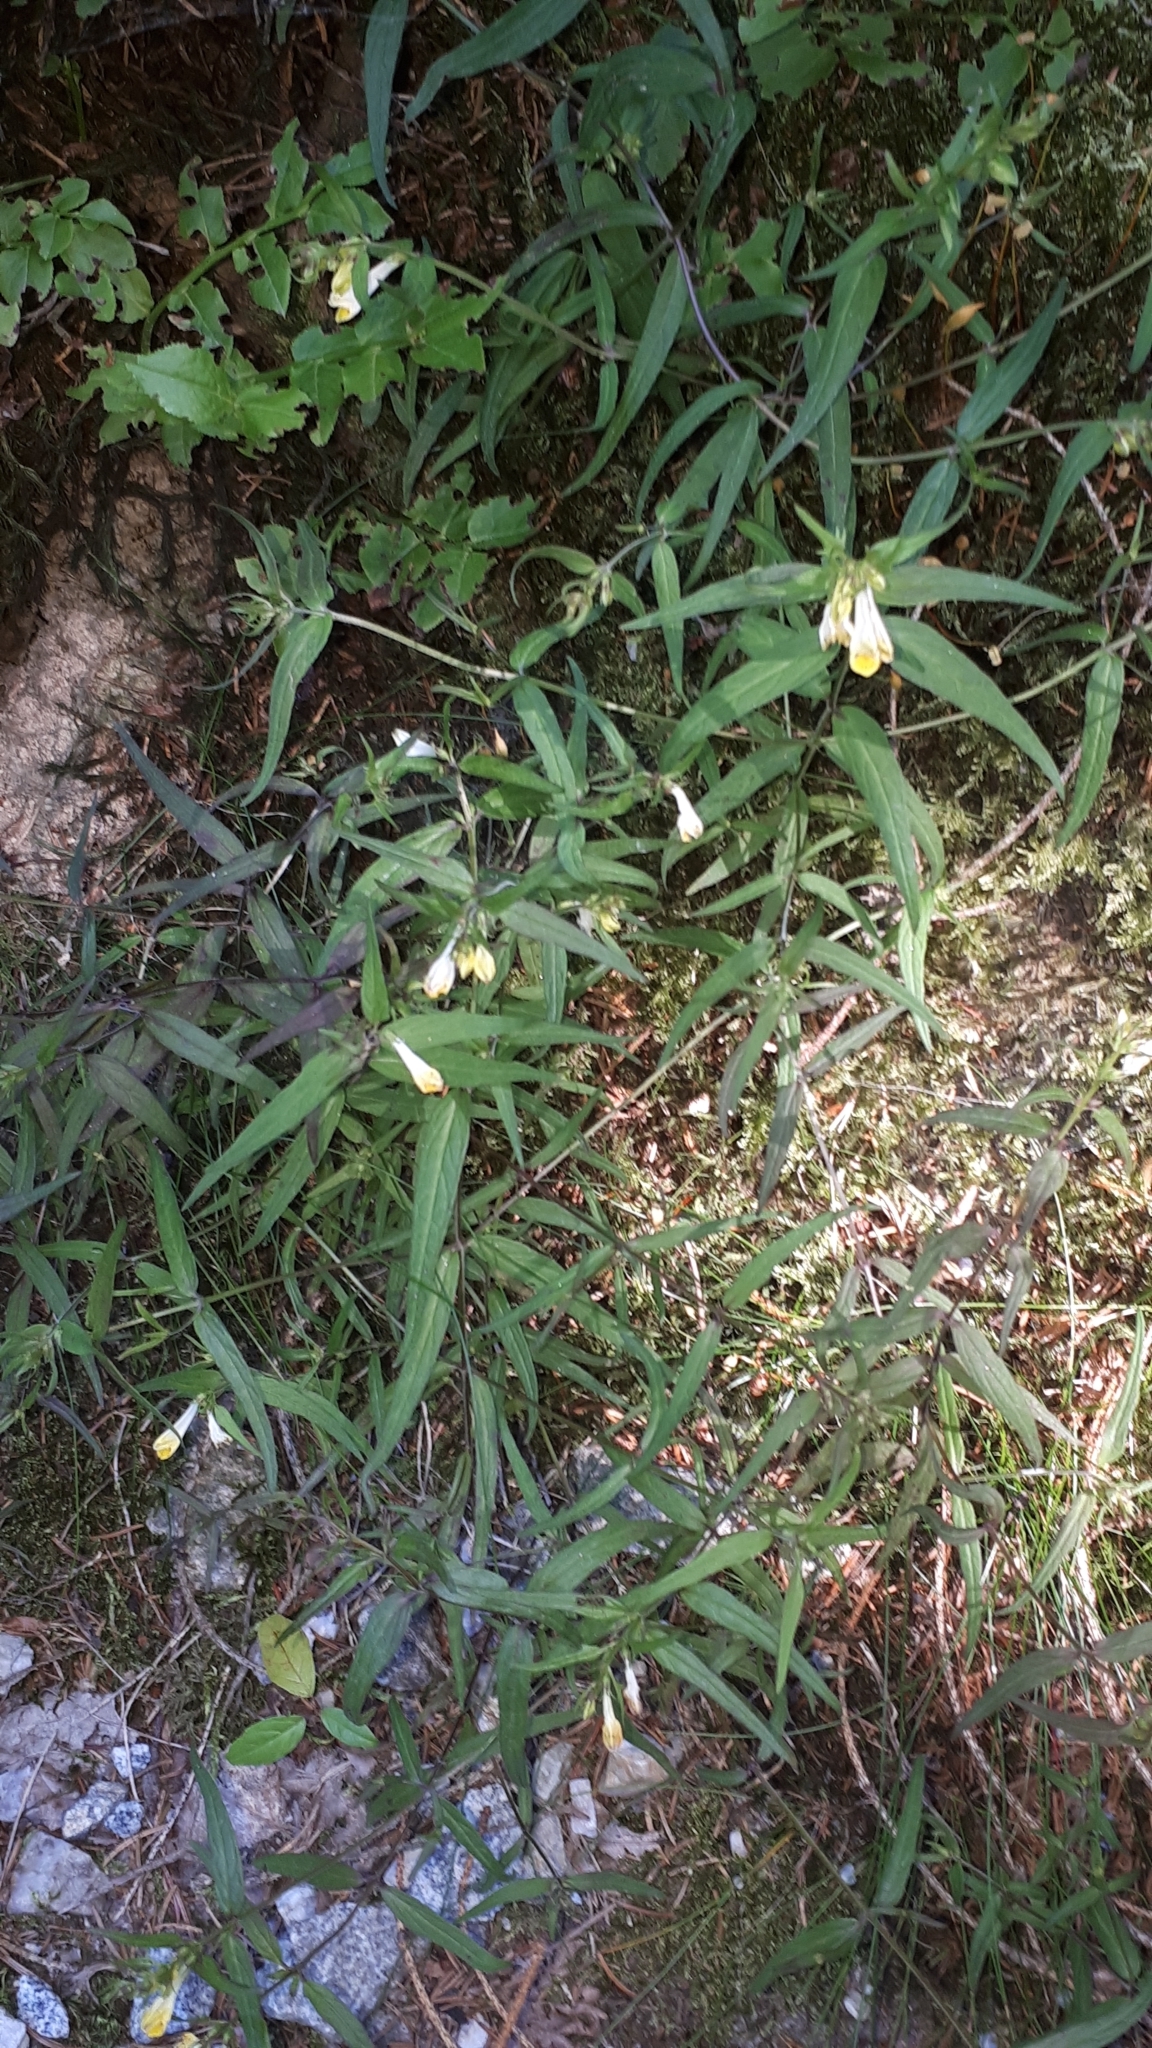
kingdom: Plantae
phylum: Tracheophyta
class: Magnoliopsida
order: Lamiales
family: Orobanchaceae
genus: Melampyrum
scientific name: Melampyrum pratense
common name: Common cow-wheat
